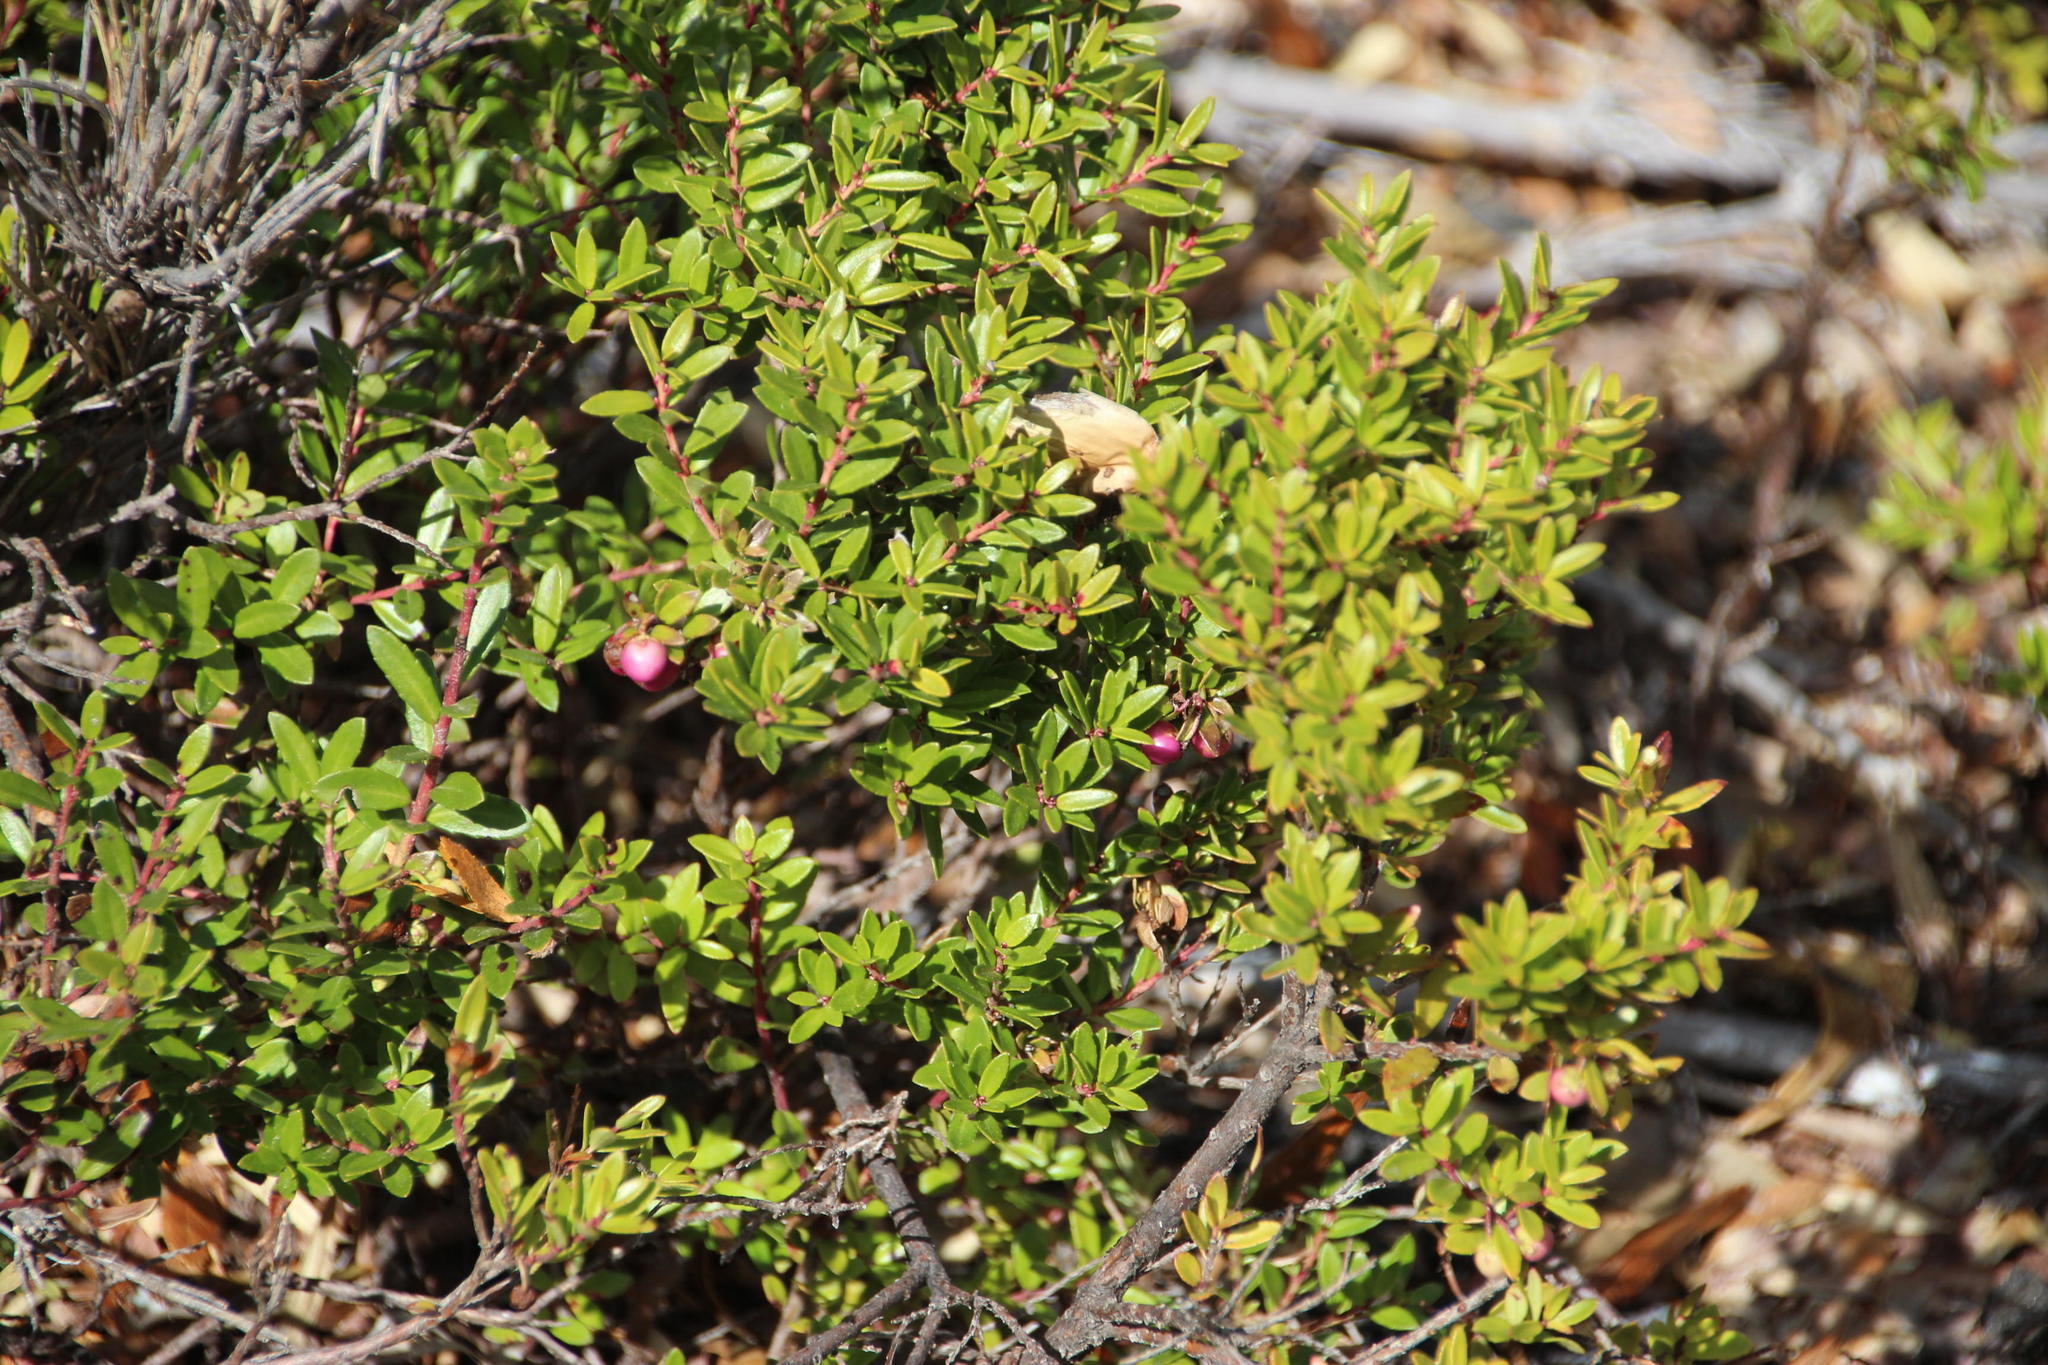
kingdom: Plantae
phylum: Tracheophyta
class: Magnoliopsida
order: Ericales
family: Ericaceae
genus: Gaultheria
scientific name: Gaultheria poeppigii
